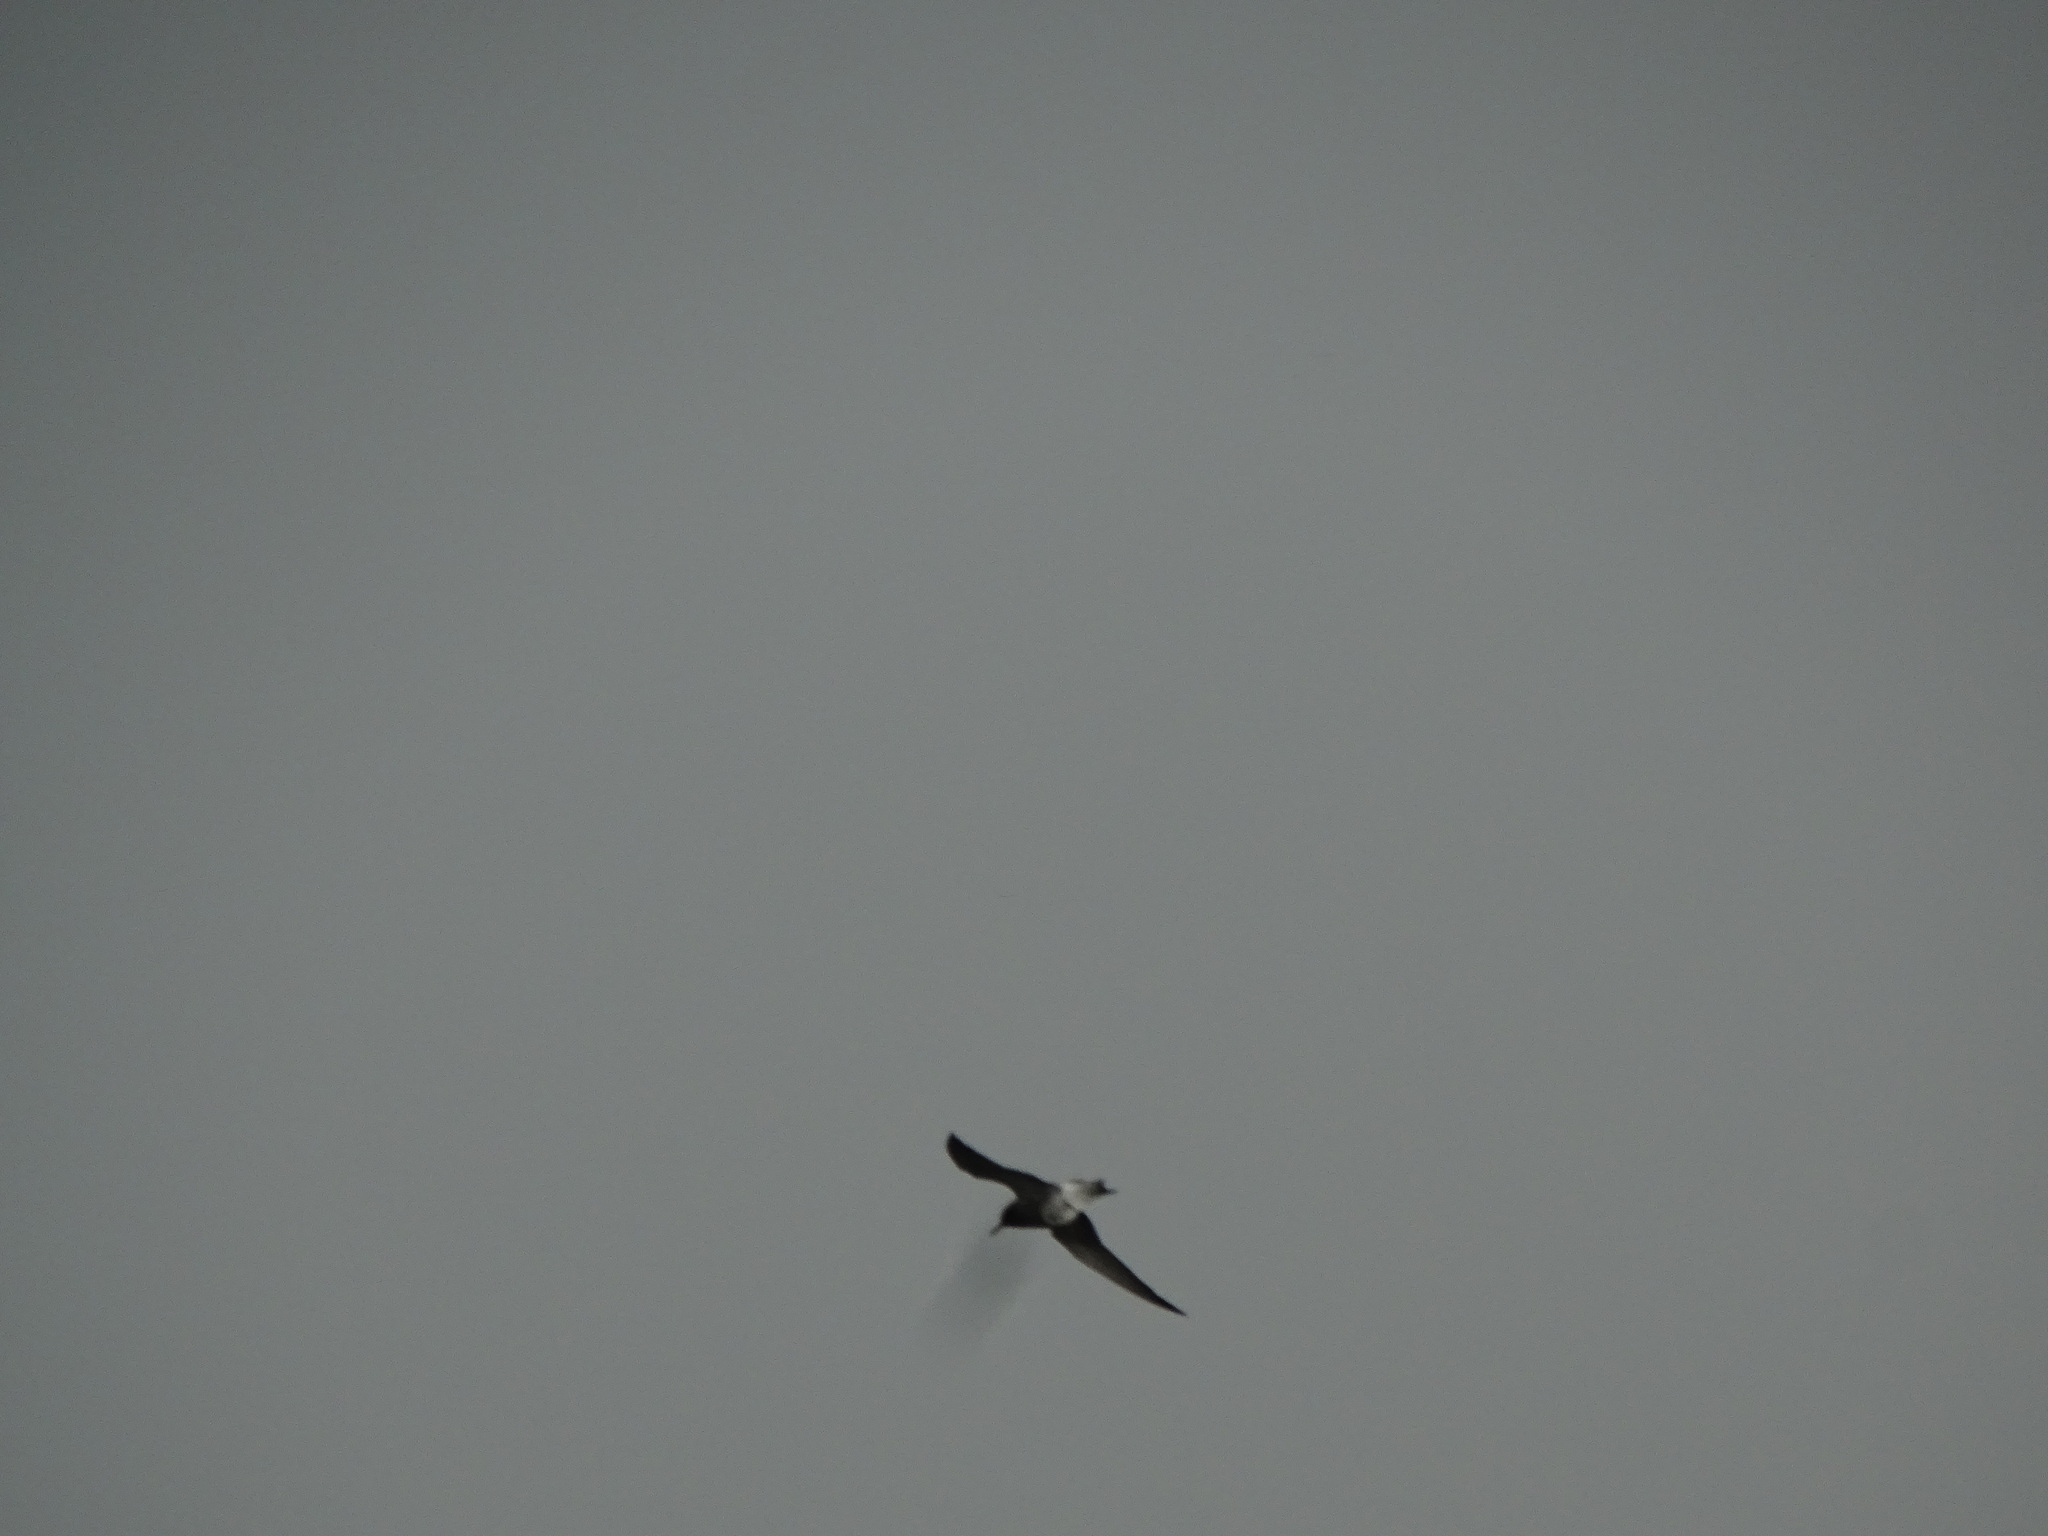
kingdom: Animalia
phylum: Chordata
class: Aves
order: Charadriiformes
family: Laridae
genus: Chlidonias
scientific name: Chlidonias niger
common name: Black tern
